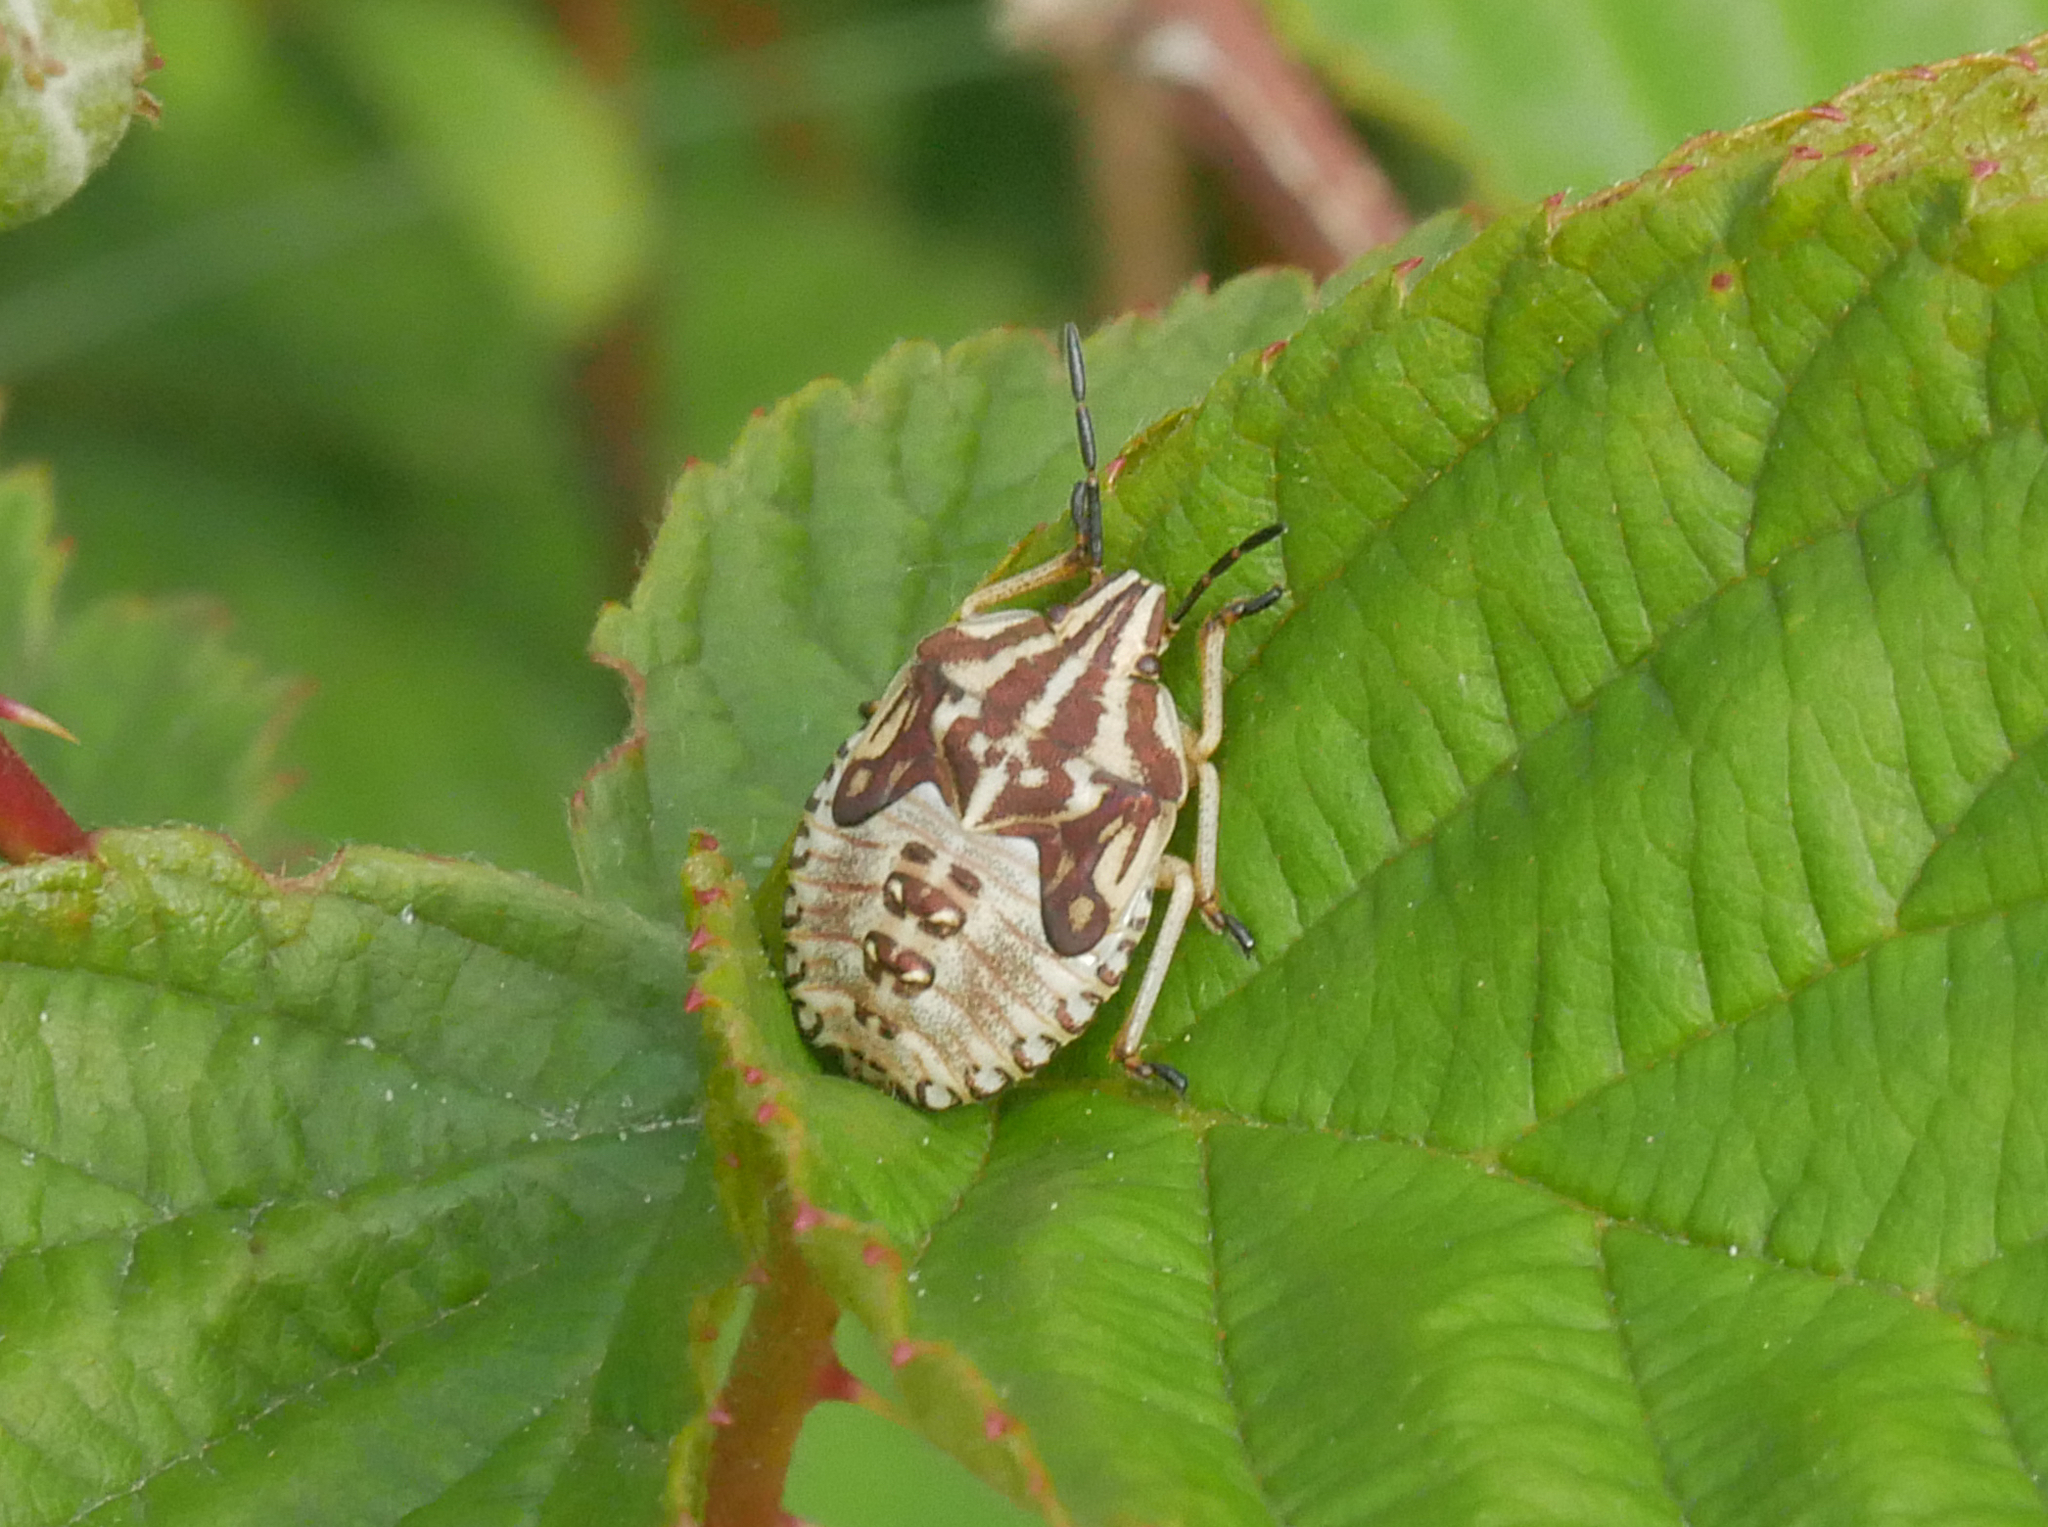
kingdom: Animalia
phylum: Arthropoda
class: Insecta
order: Hemiptera
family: Pentatomidae
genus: Carpocoris
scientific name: Carpocoris purpureipennis
